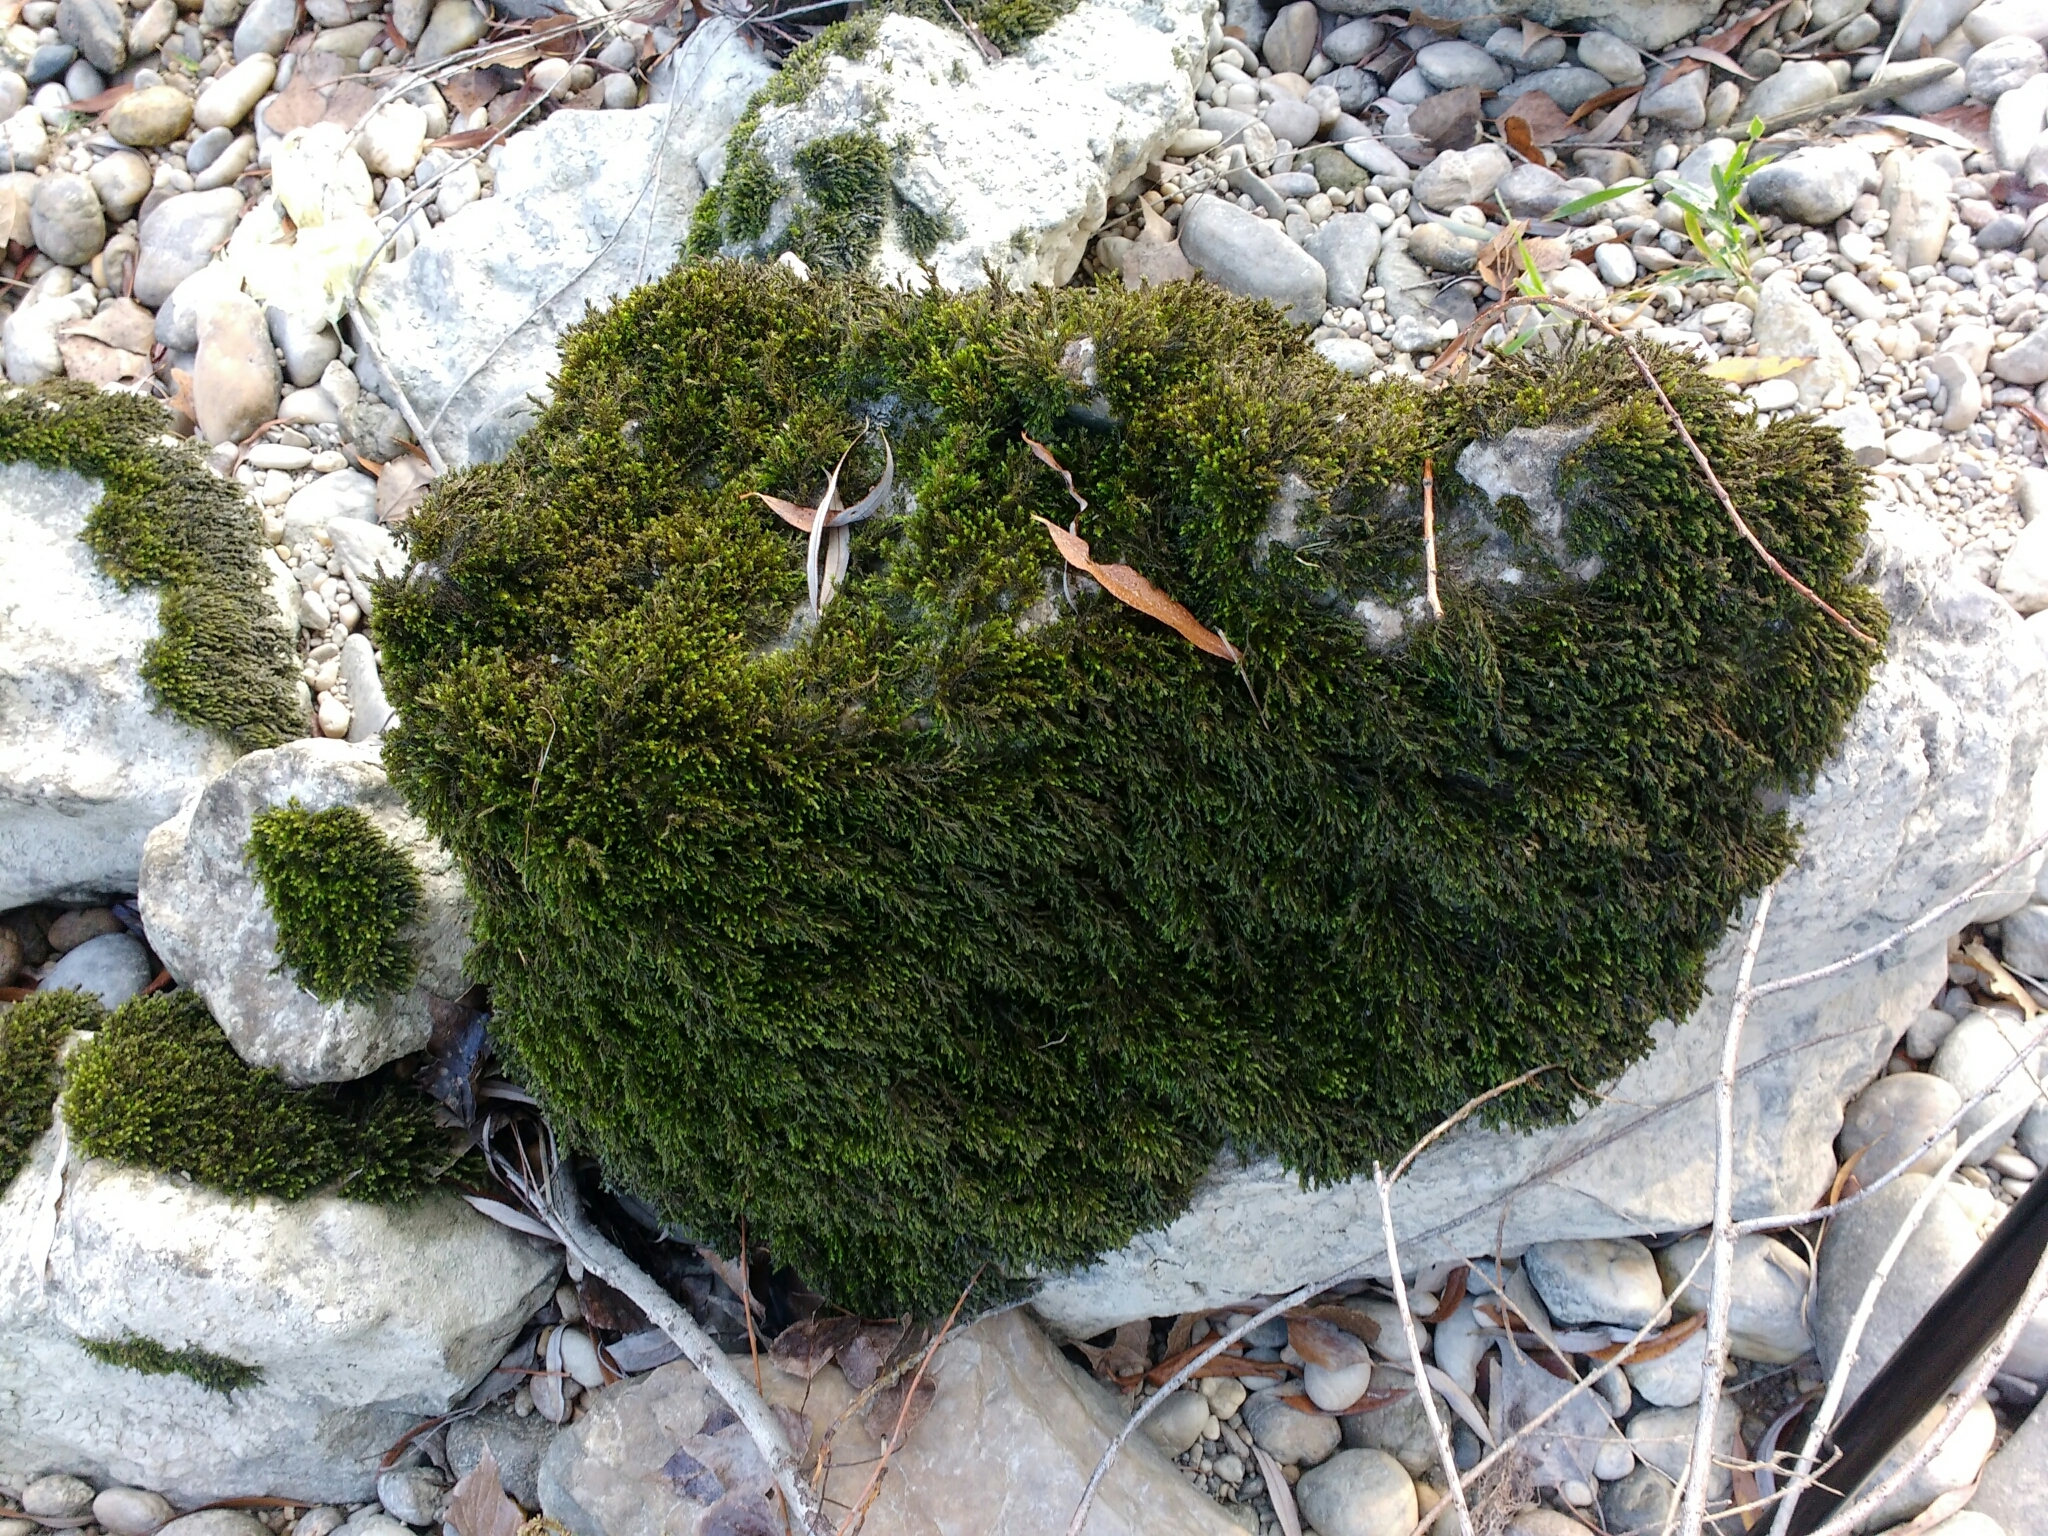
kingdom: Plantae
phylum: Bryophyta
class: Bryopsida
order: Pottiales
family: Pottiaceae
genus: Cinclidotus
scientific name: Cinclidotus fontinaloides
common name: Smaller lattice-moss
